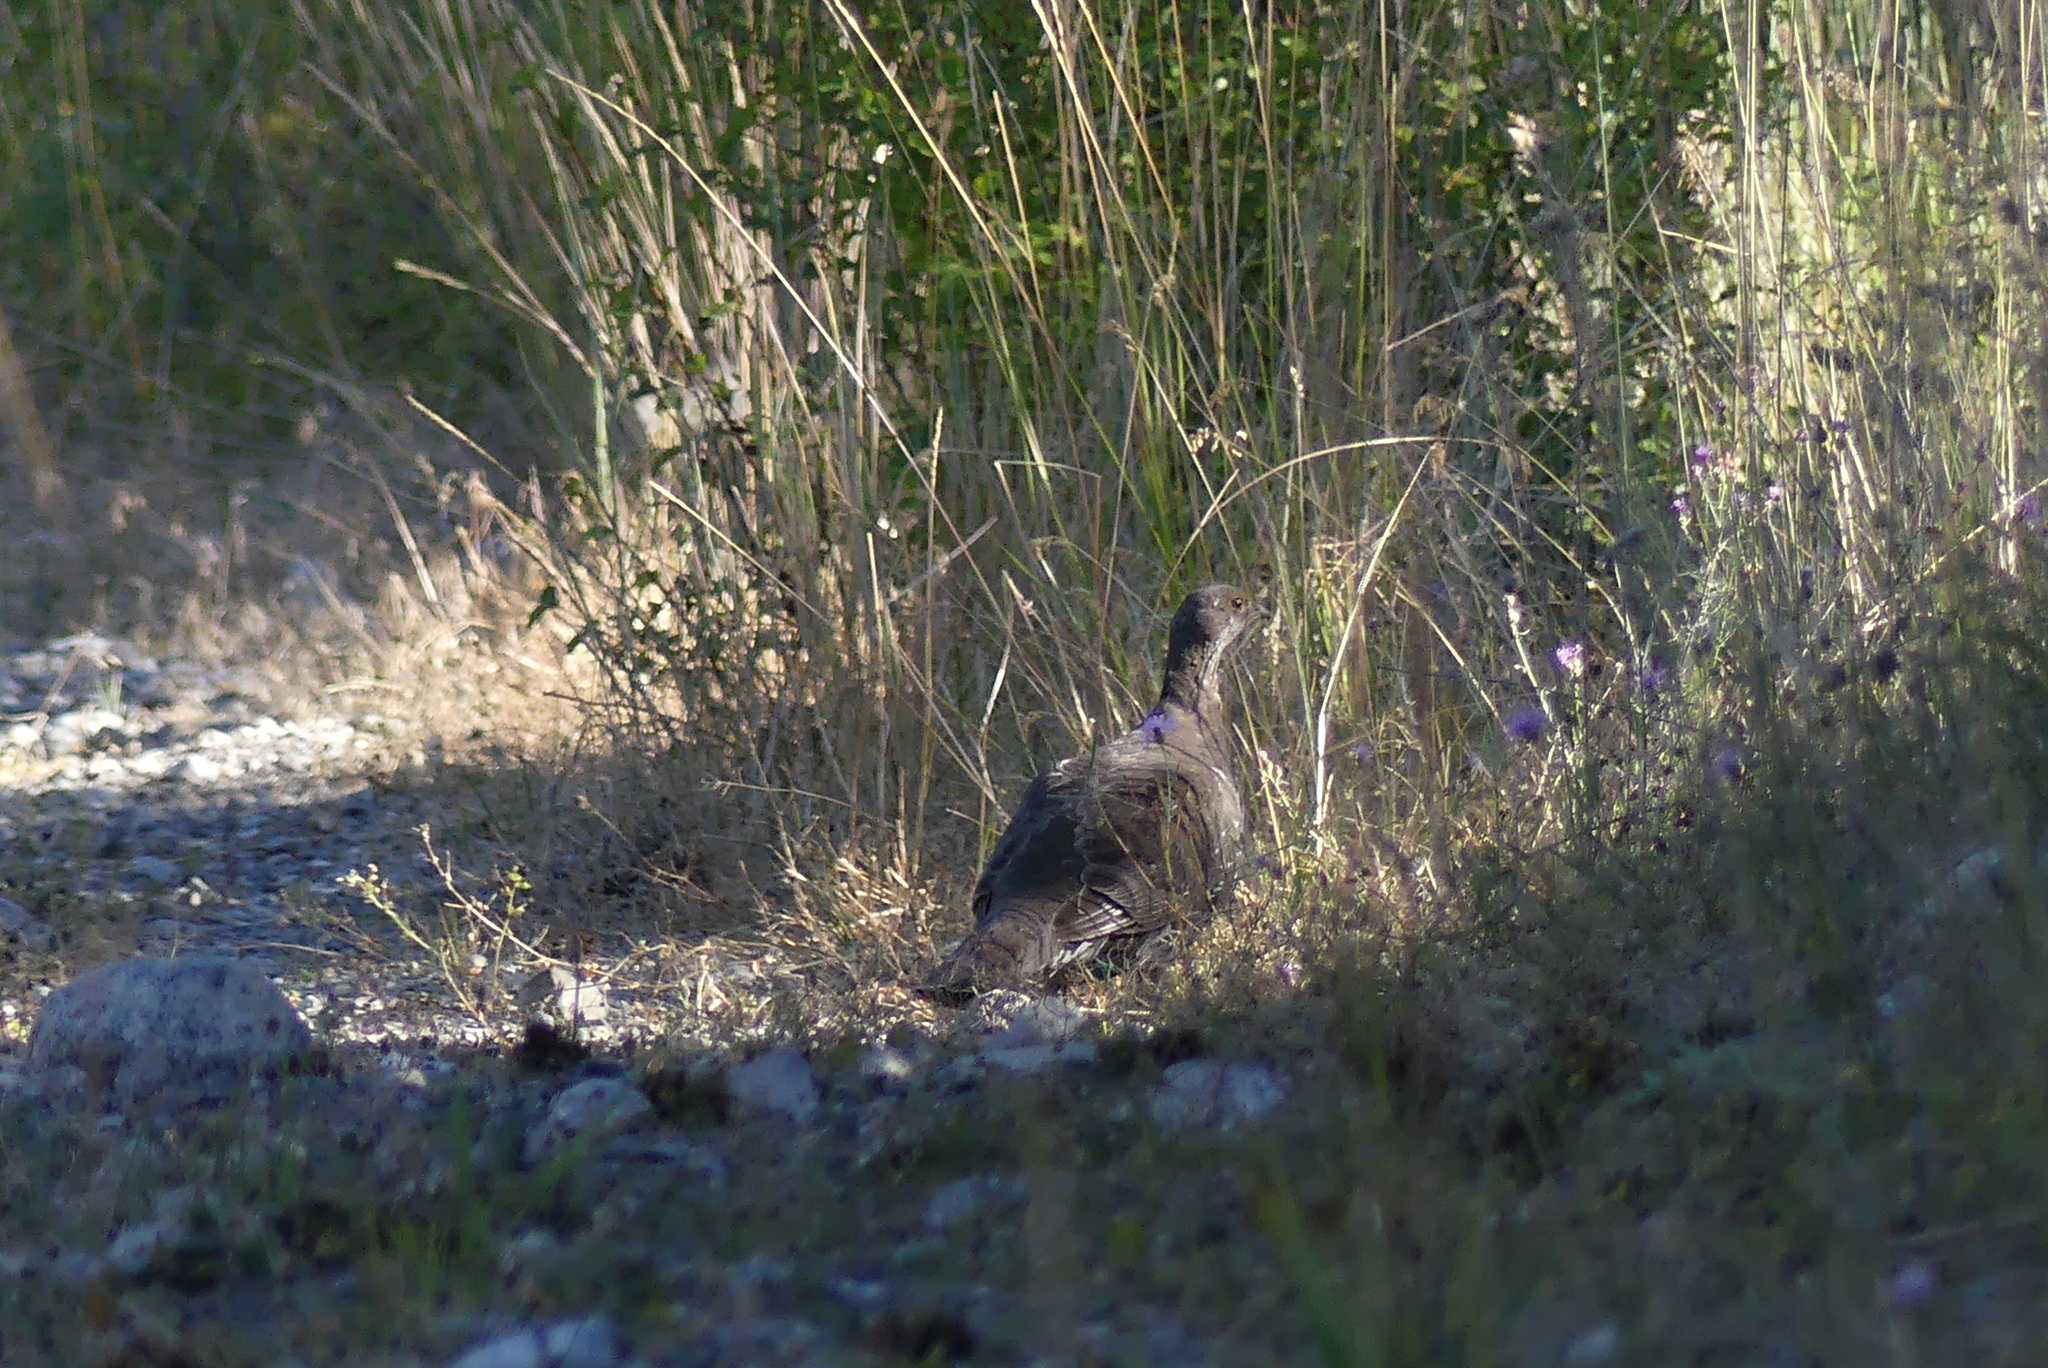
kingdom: Animalia
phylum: Chordata
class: Aves
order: Galliformes
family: Phasianidae
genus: Dendragapus
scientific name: Dendragapus obscurus
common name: Dusky grouse
